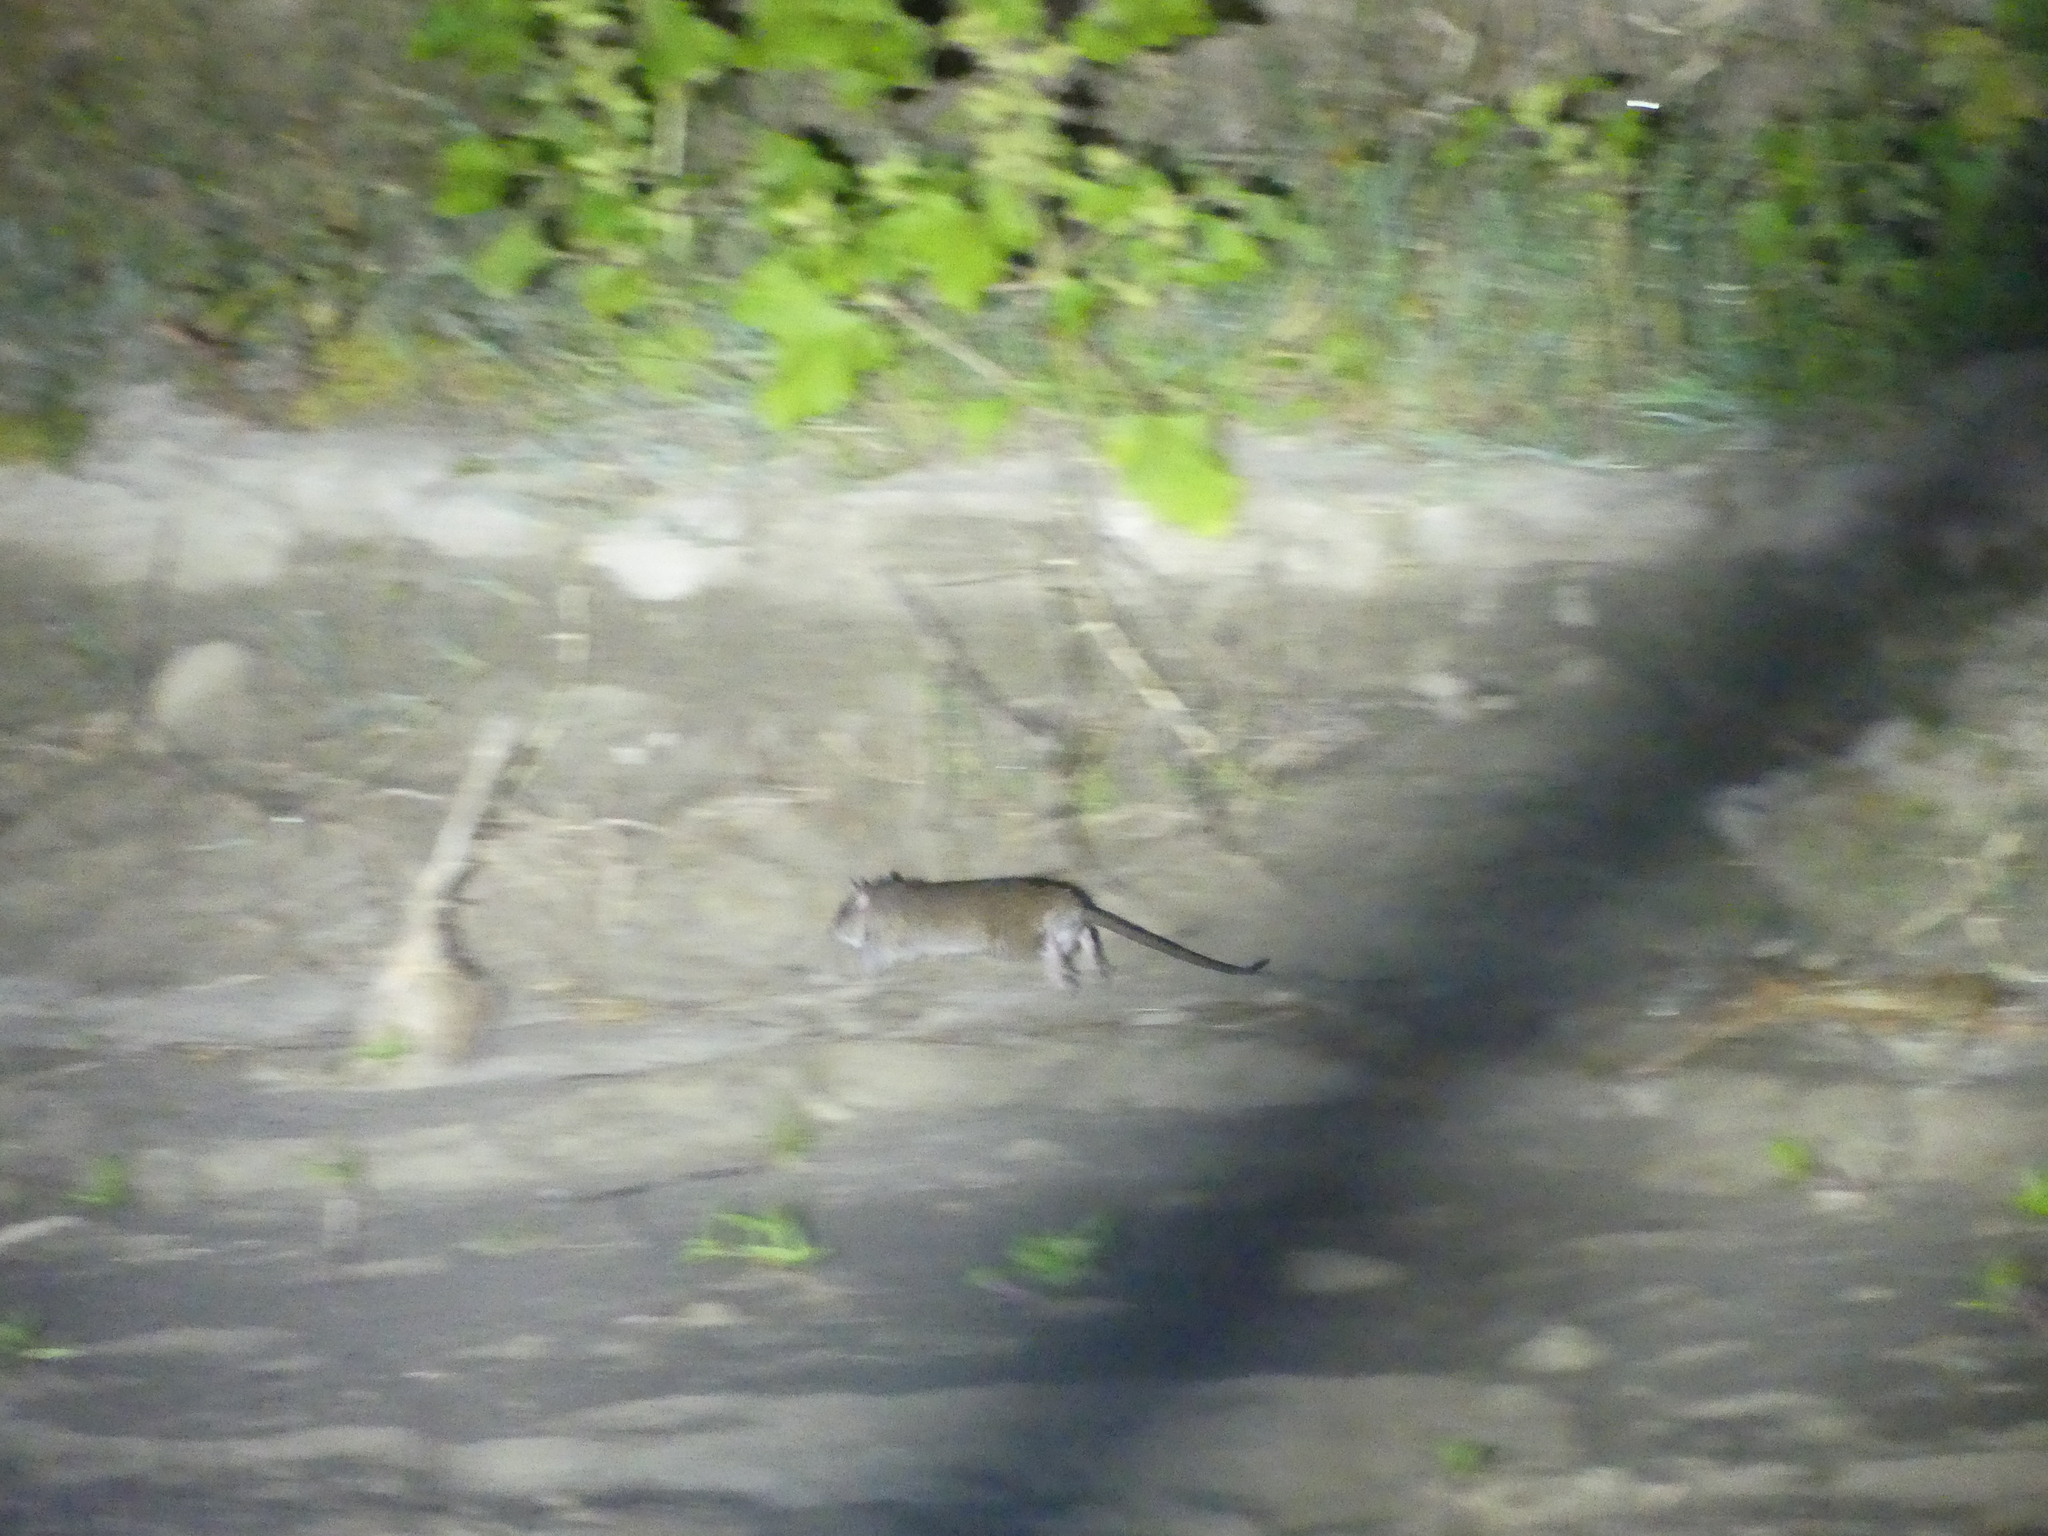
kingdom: Animalia
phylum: Chordata
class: Mammalia
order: Rodentia
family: Muridae
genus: Rattus
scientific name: Rattus norvegicus
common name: Brown rat
